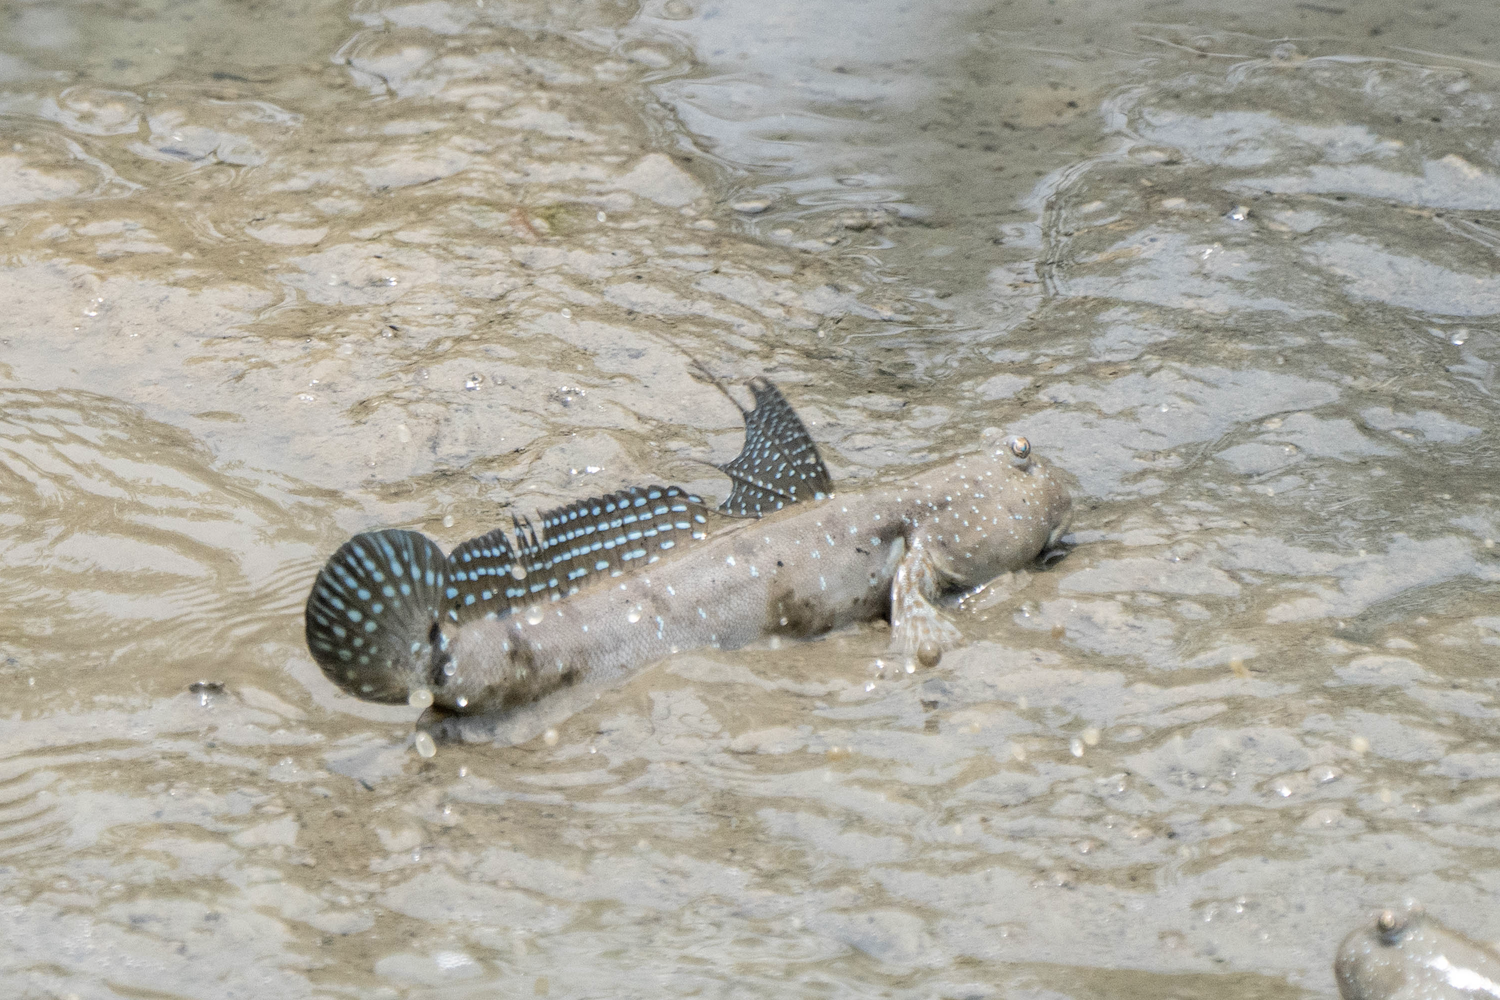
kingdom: Animalia
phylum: Chordata
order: Perciformes
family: Gobiidae
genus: Boleophthalmus
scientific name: Boleophthalmus pectinirostris
